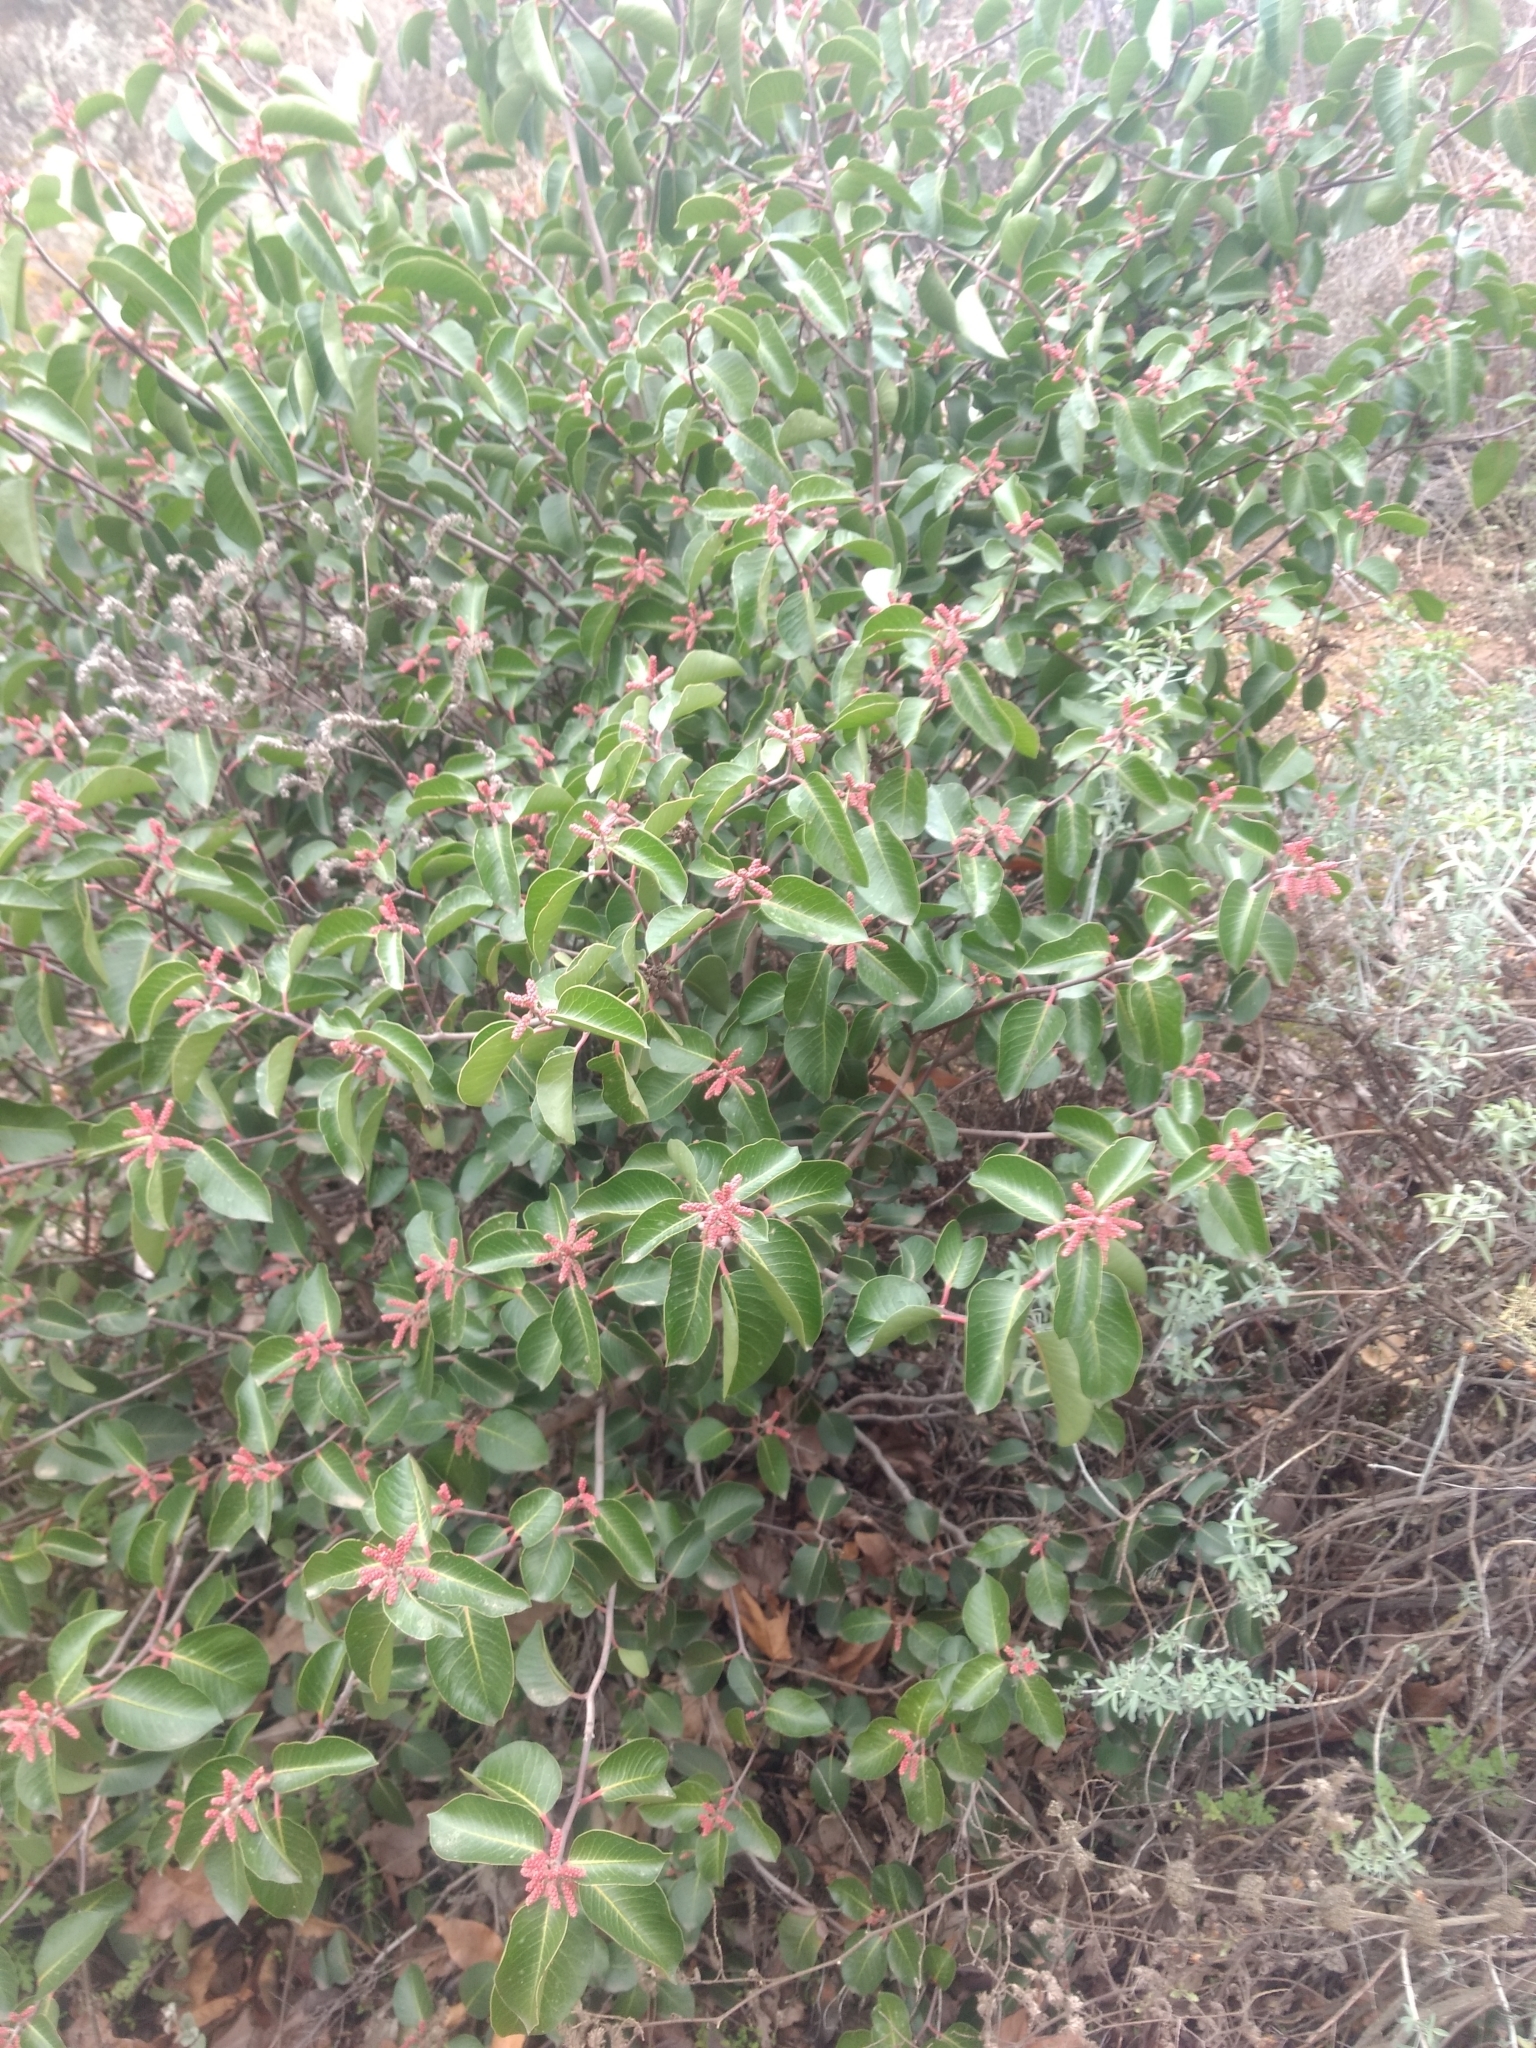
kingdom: Plantae
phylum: Tracheophyta
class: Magnoliopsida
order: Sapindales
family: Anacardiaceae
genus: Rhus
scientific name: Rhus ovata
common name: Sugar sumac
